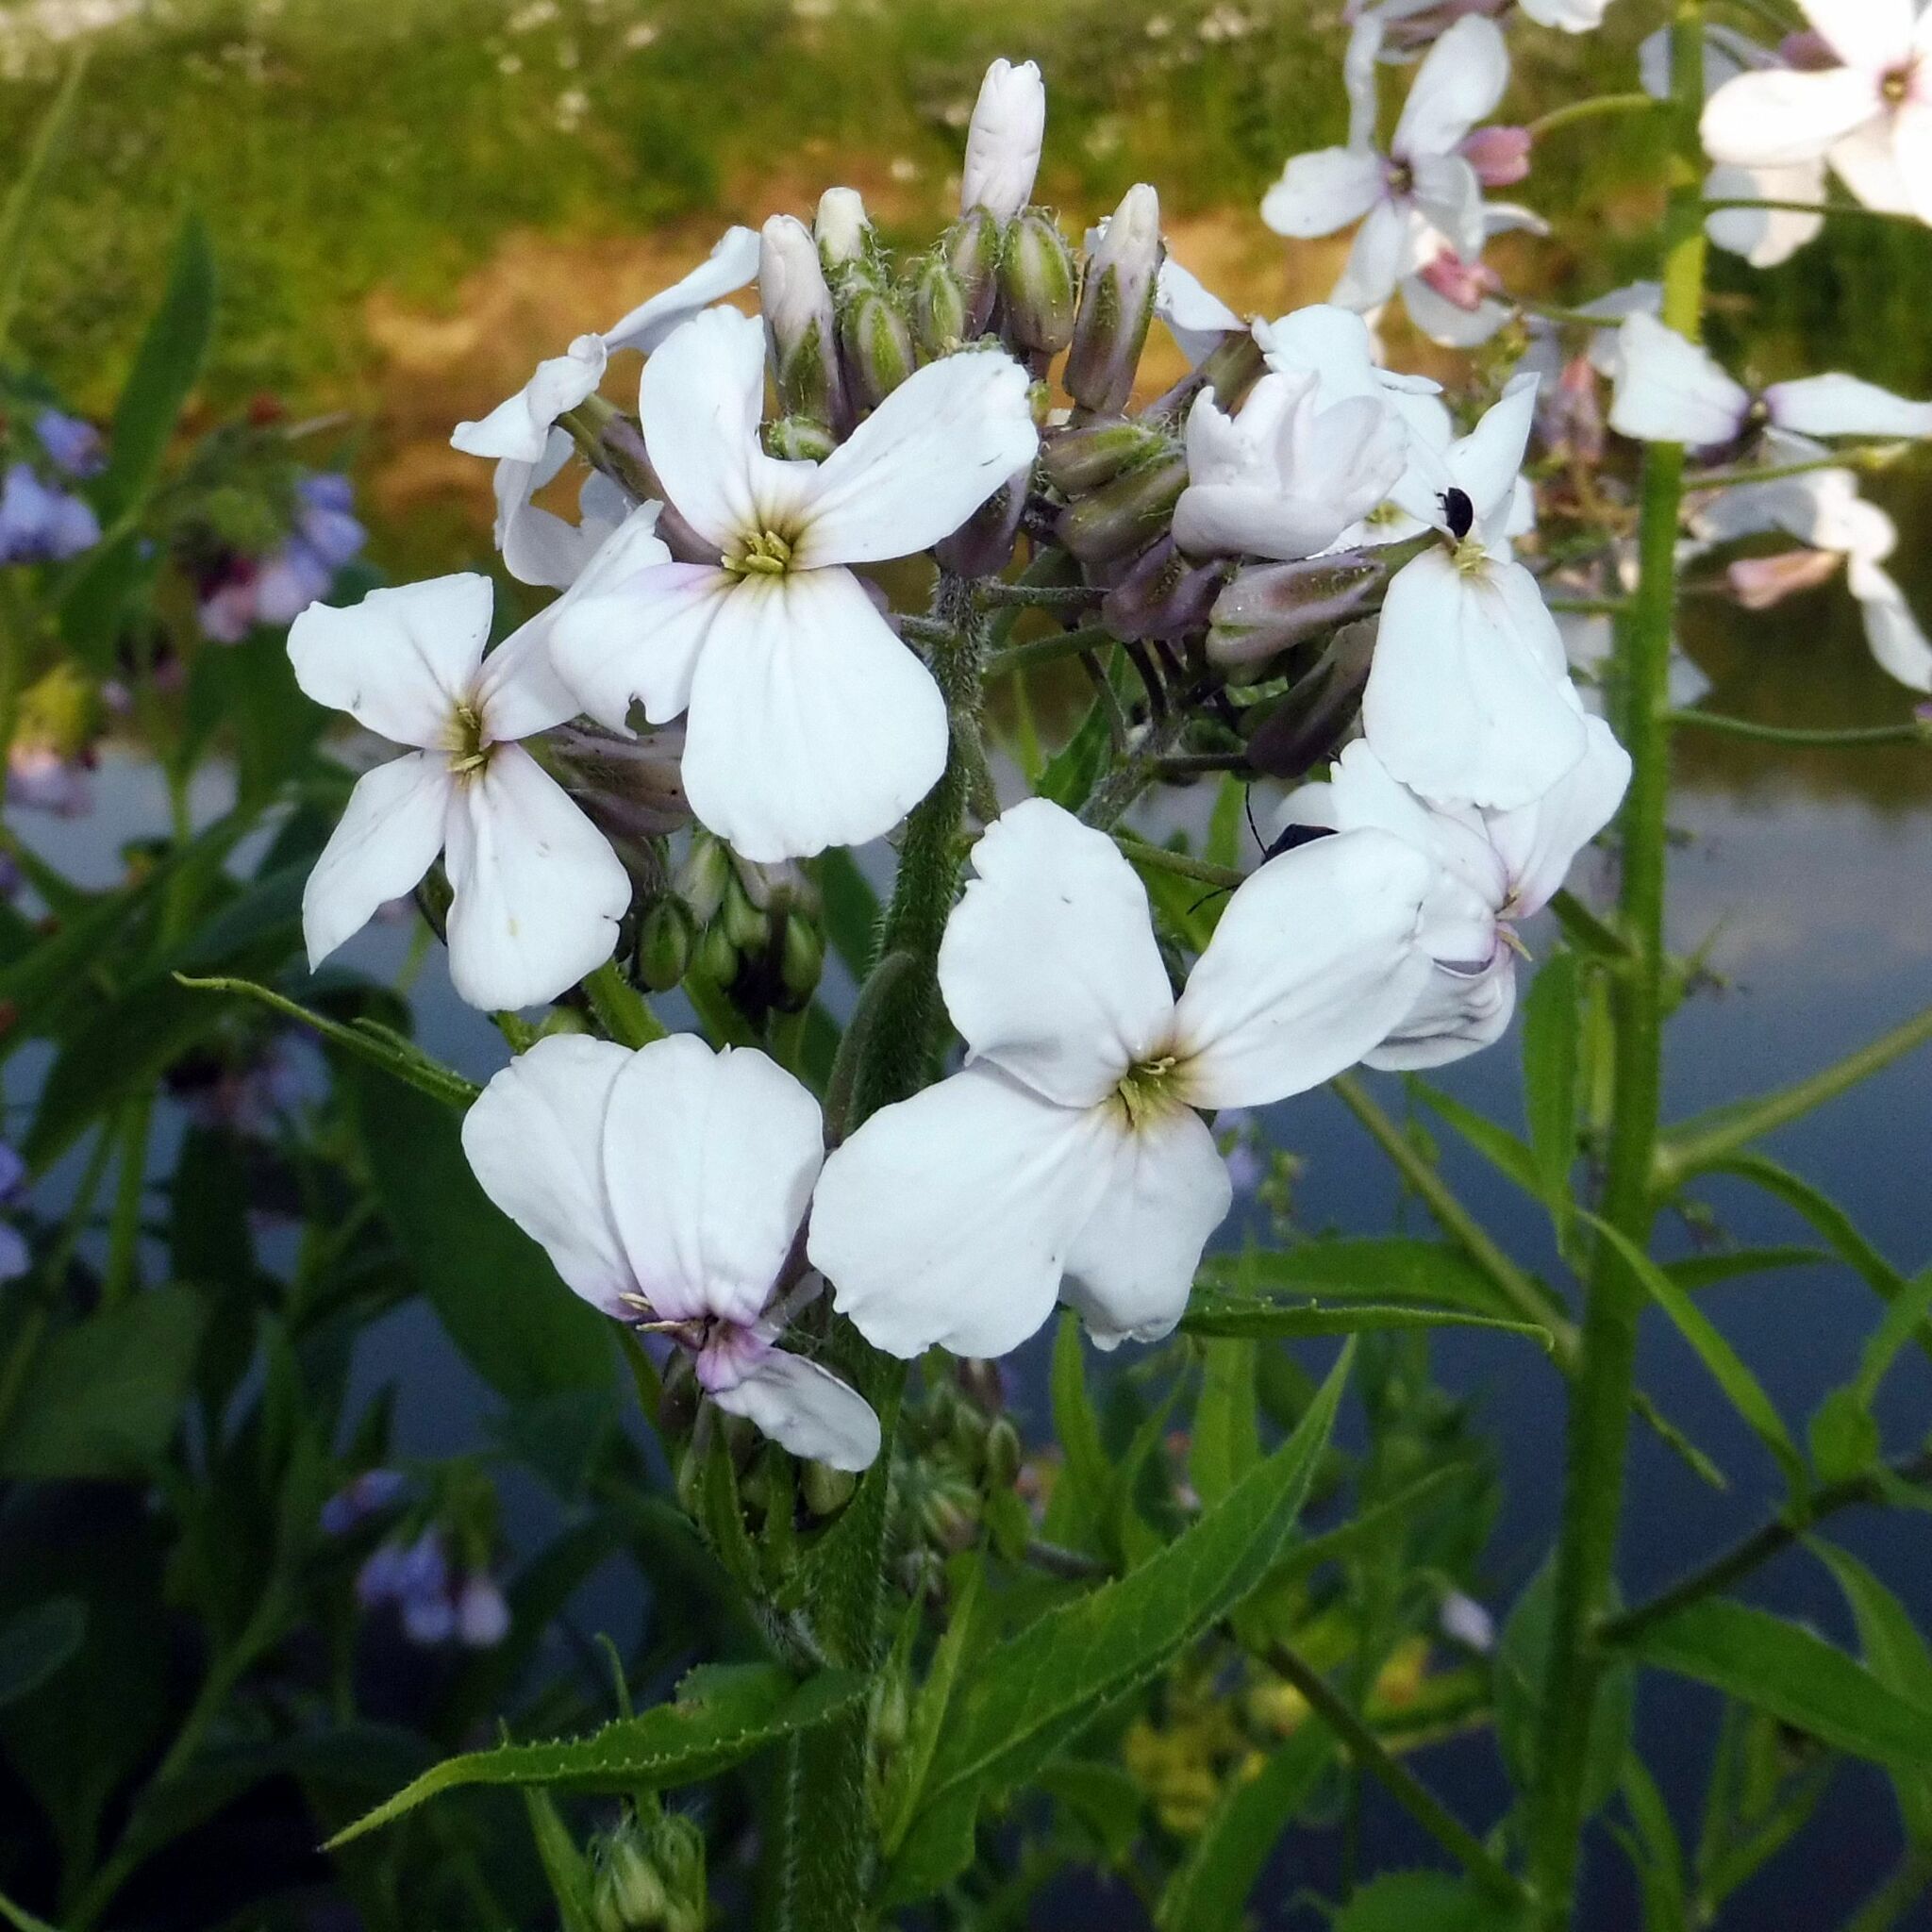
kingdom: Plantae
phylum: Tracheophyta
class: Magnoliopsida
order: Brassicales
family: Brassicaceae
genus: Hesperis
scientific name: Hesperis matronalis
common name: Dame's-violet
